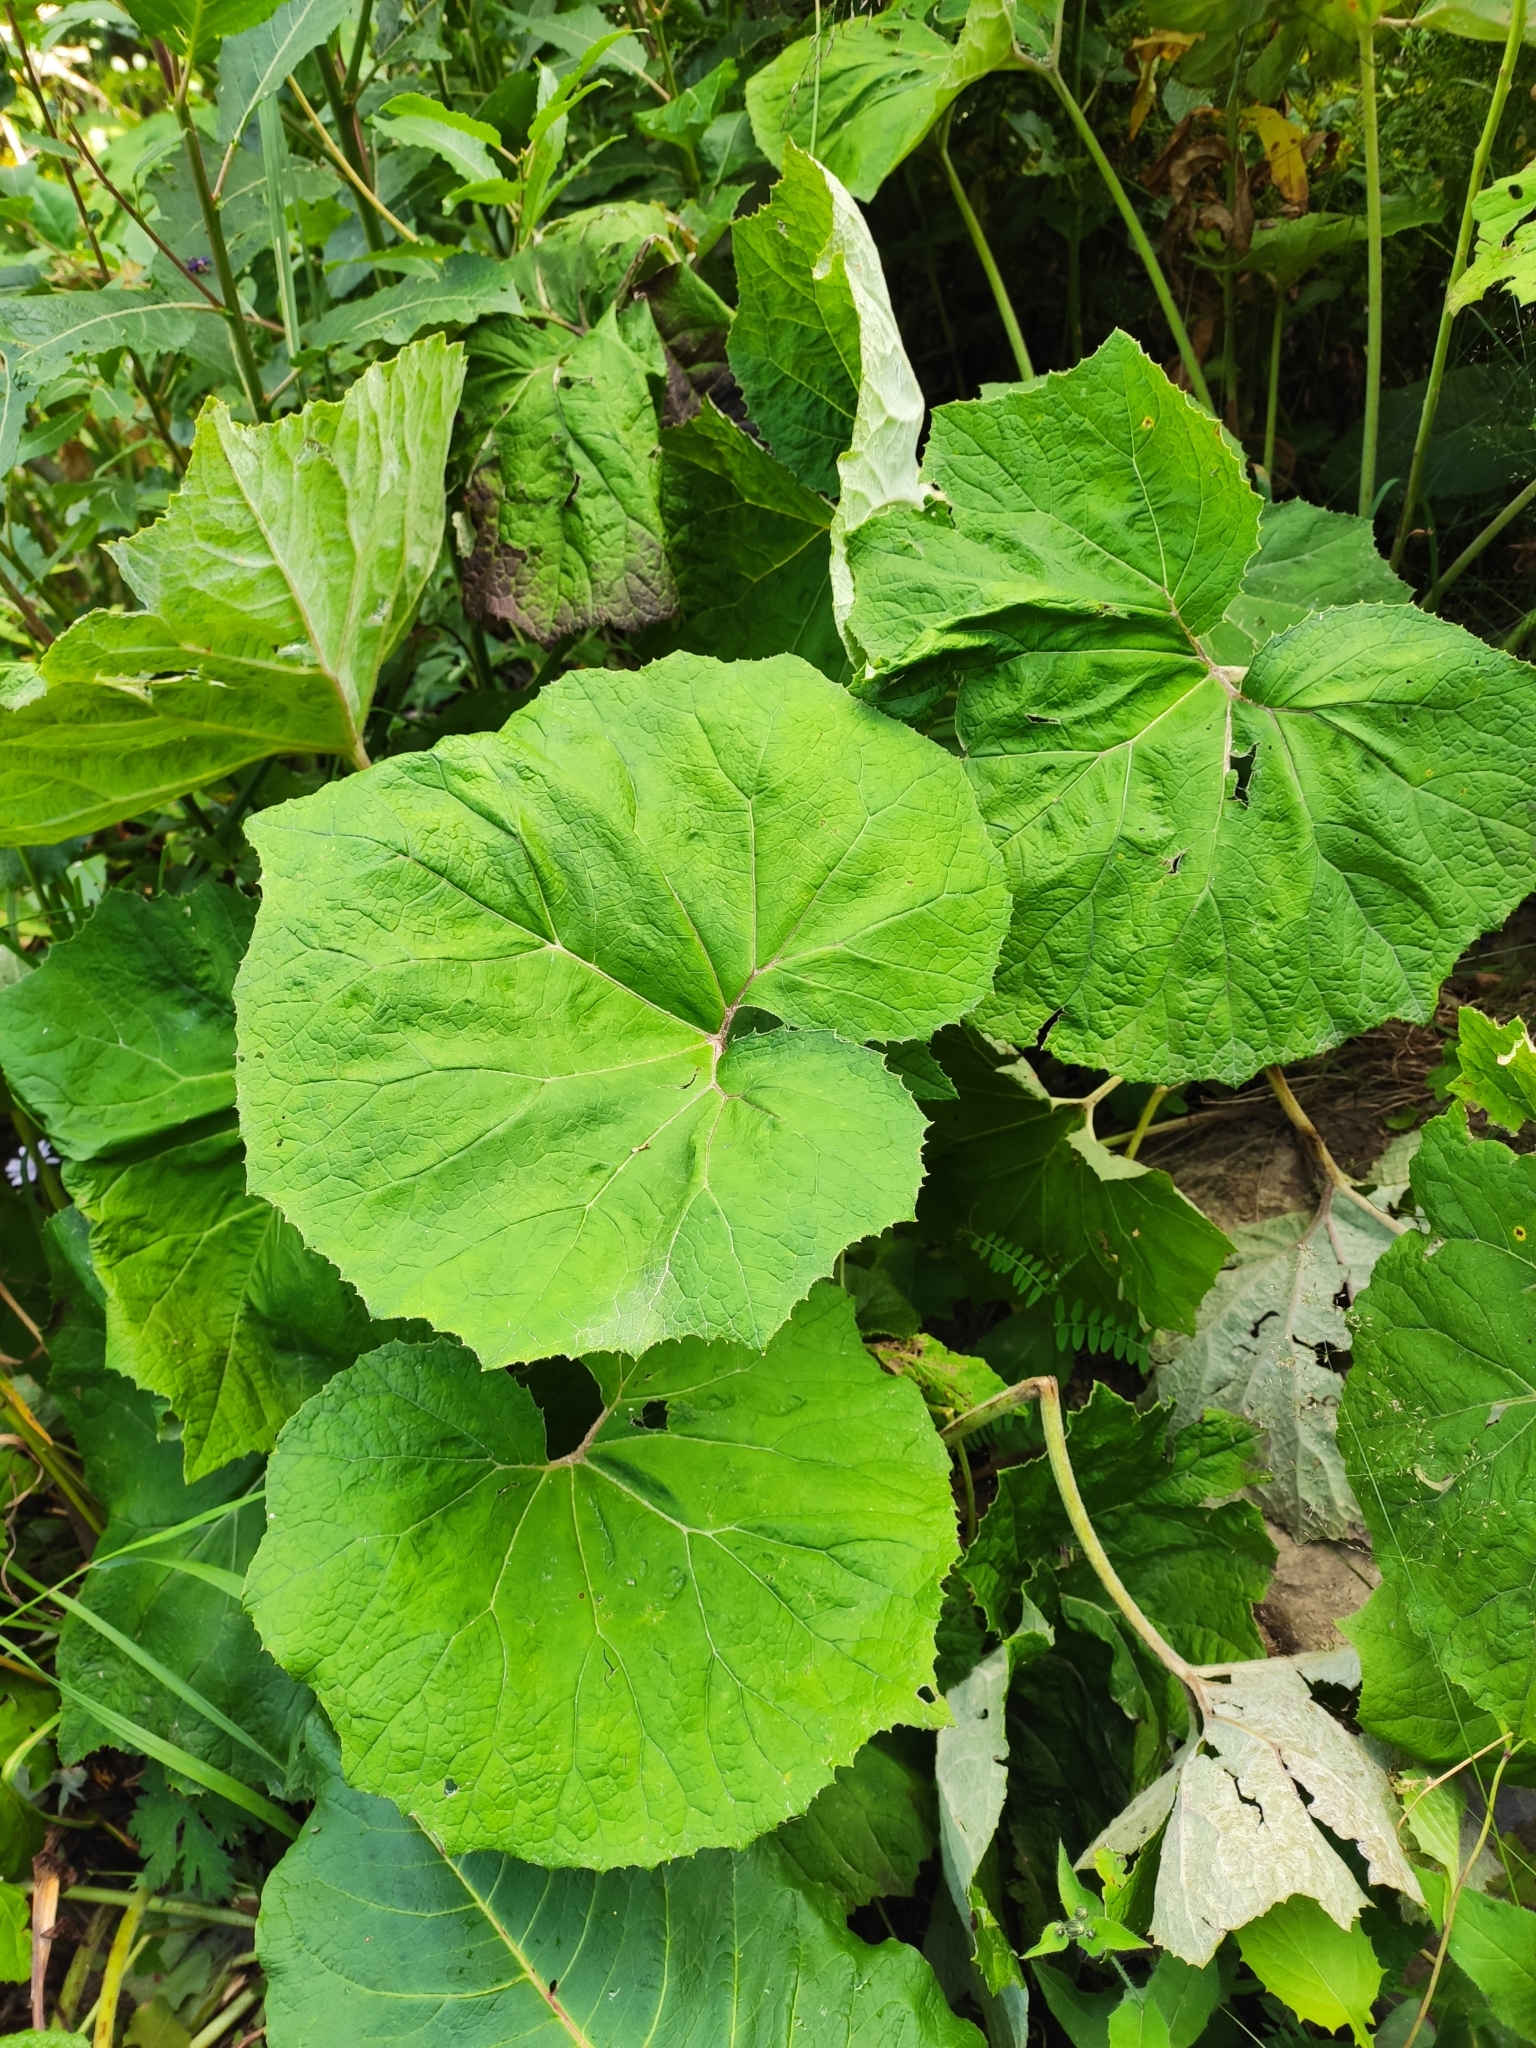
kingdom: Plantae
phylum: Tracheophyta
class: Magnoliopsida
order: Asterales
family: Asteraceae
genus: Tussilago
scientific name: Tussilago farfara
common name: Coltsfoot
